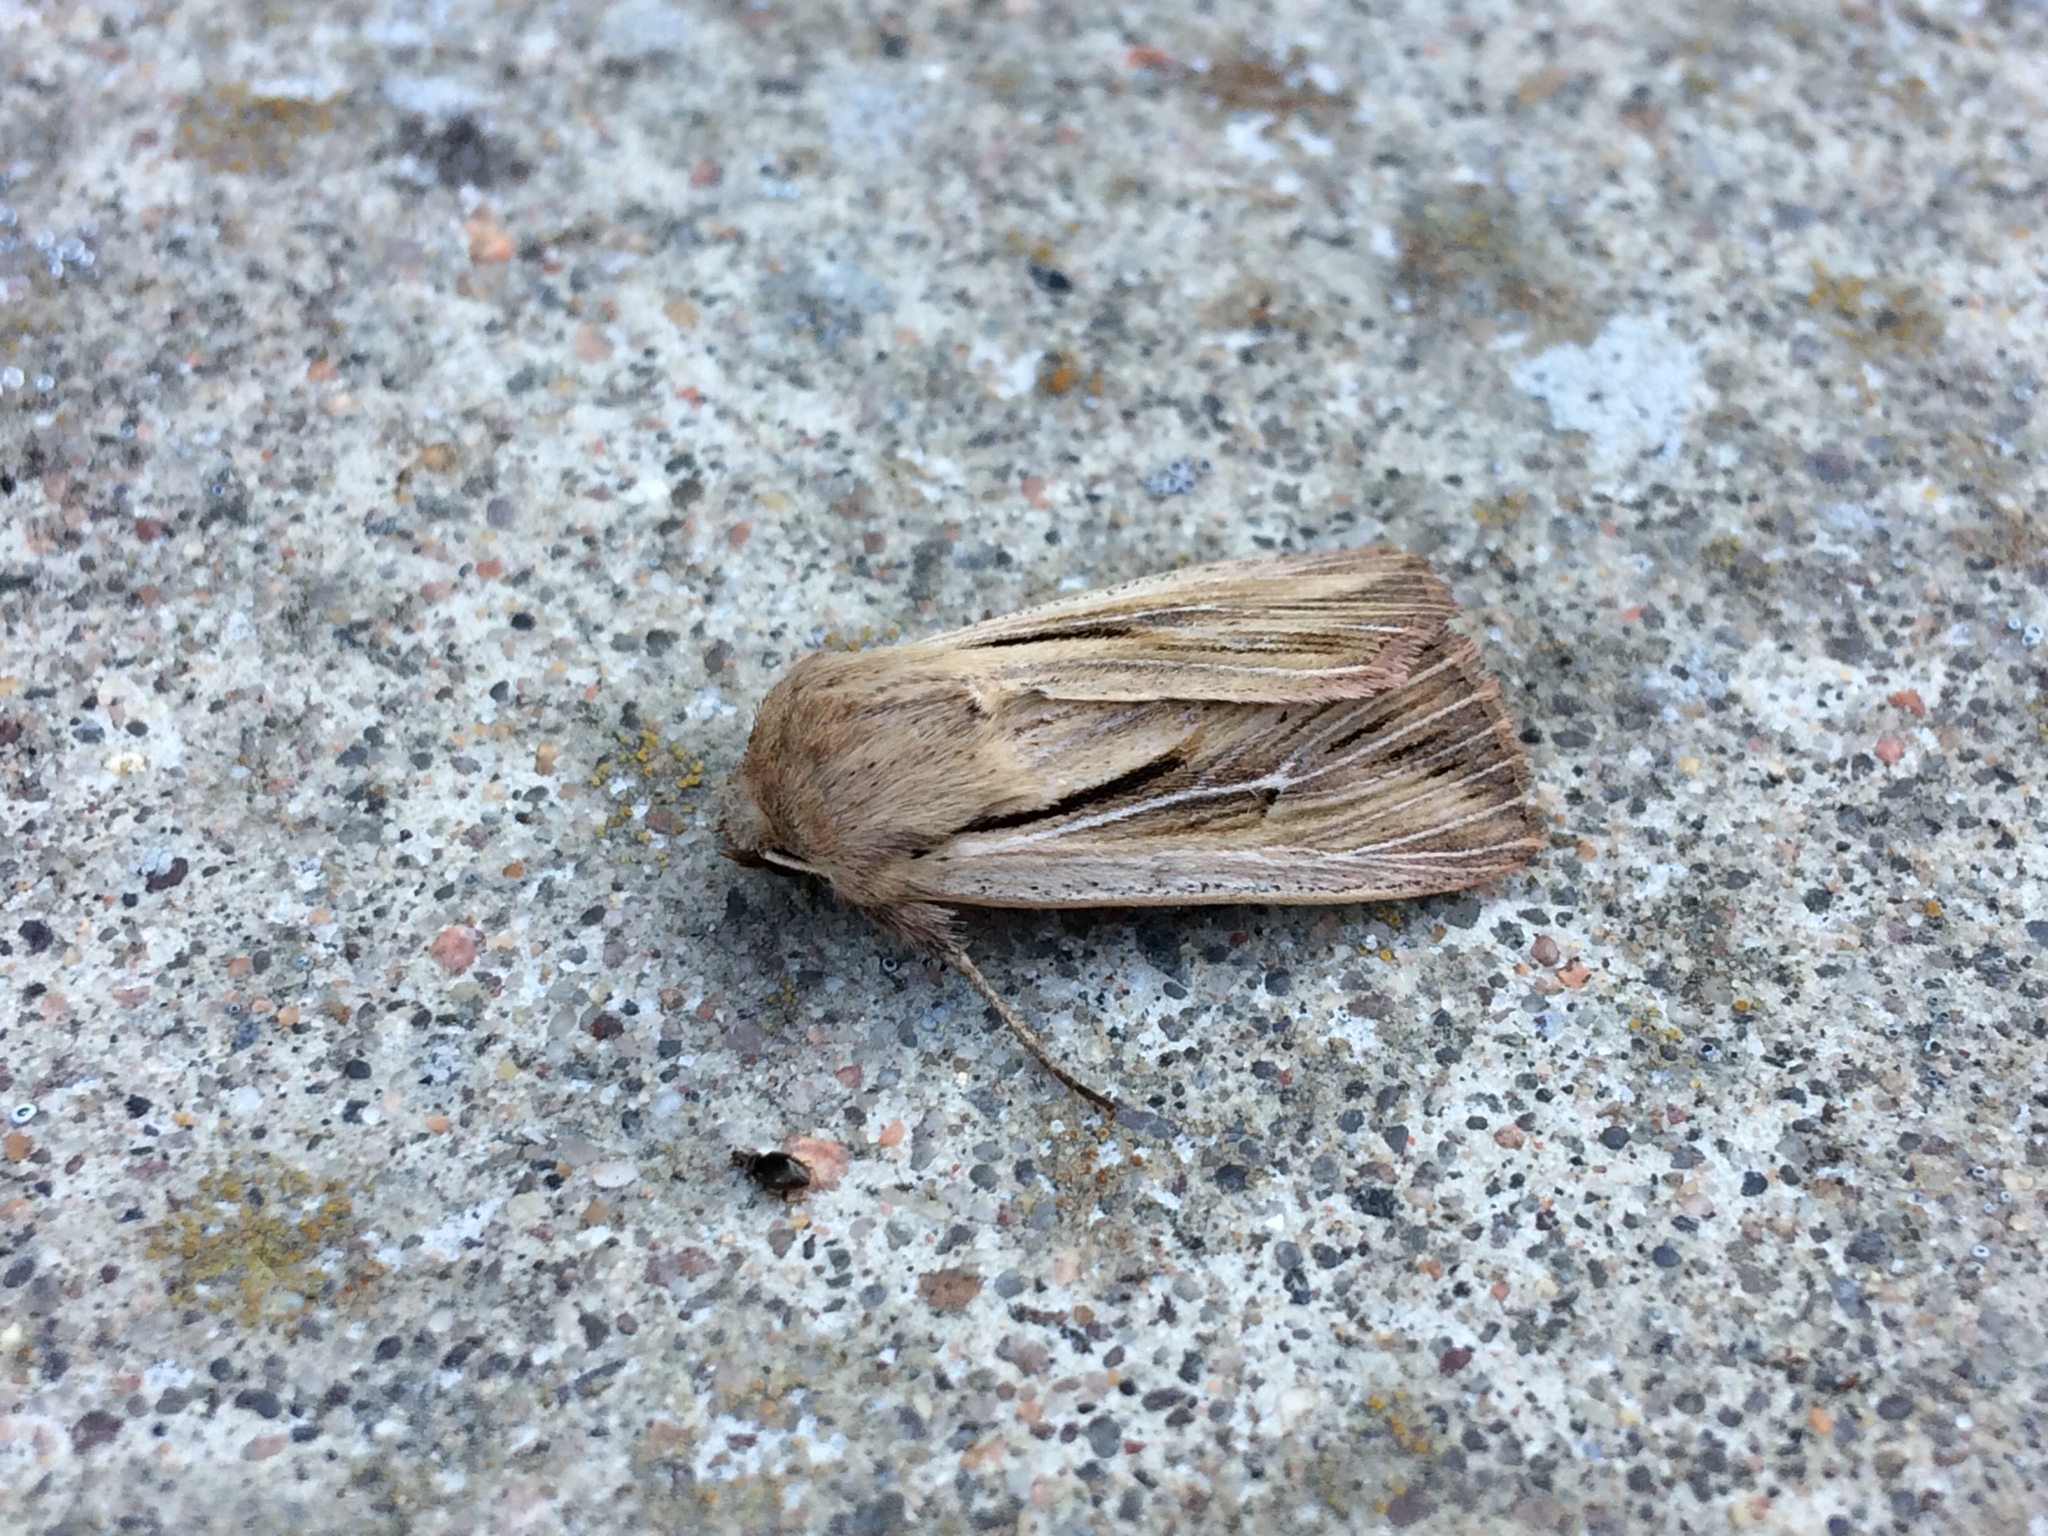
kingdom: Animalia
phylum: Arthropoda
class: Insecta
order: Lepidoptera
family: Noctuidae
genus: Leucania
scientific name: Leucania comma
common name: Shoulder-striped wainscot
